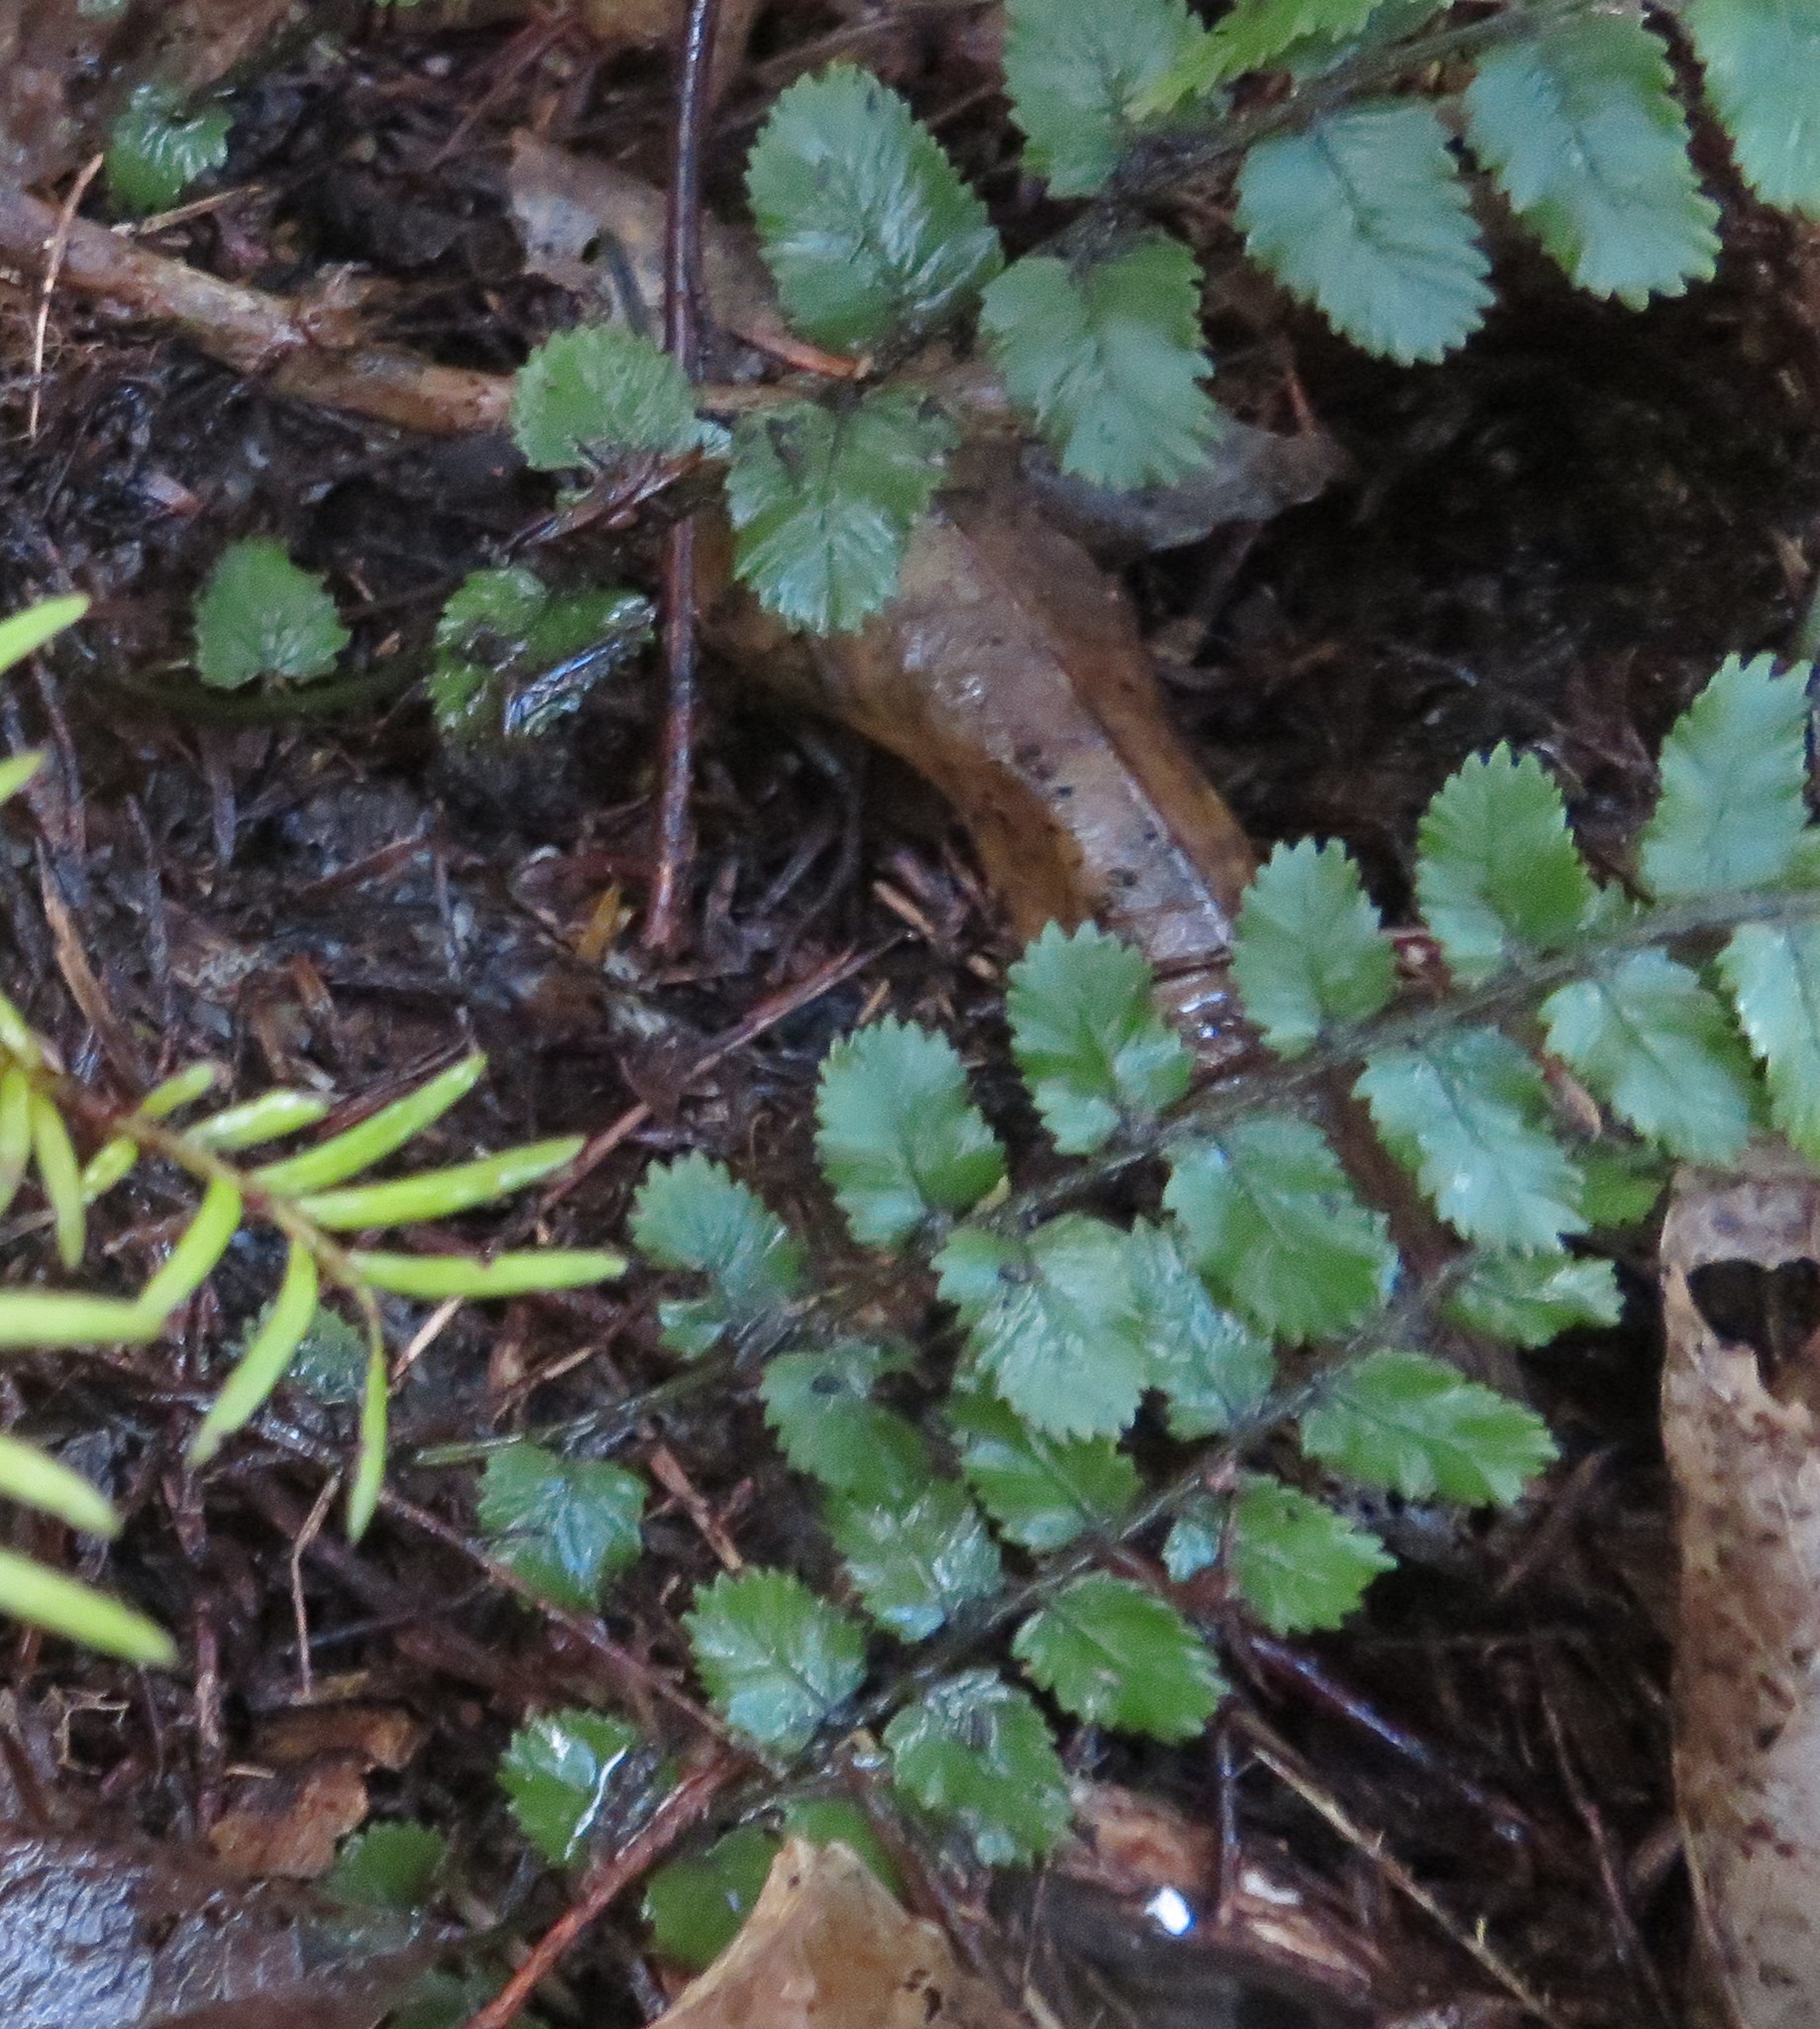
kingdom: Plantae
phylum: Tracheophyta
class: Polypodiopsida
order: Polypodiales
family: Blechnaceae
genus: Icarus
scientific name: Icarus filiformis
